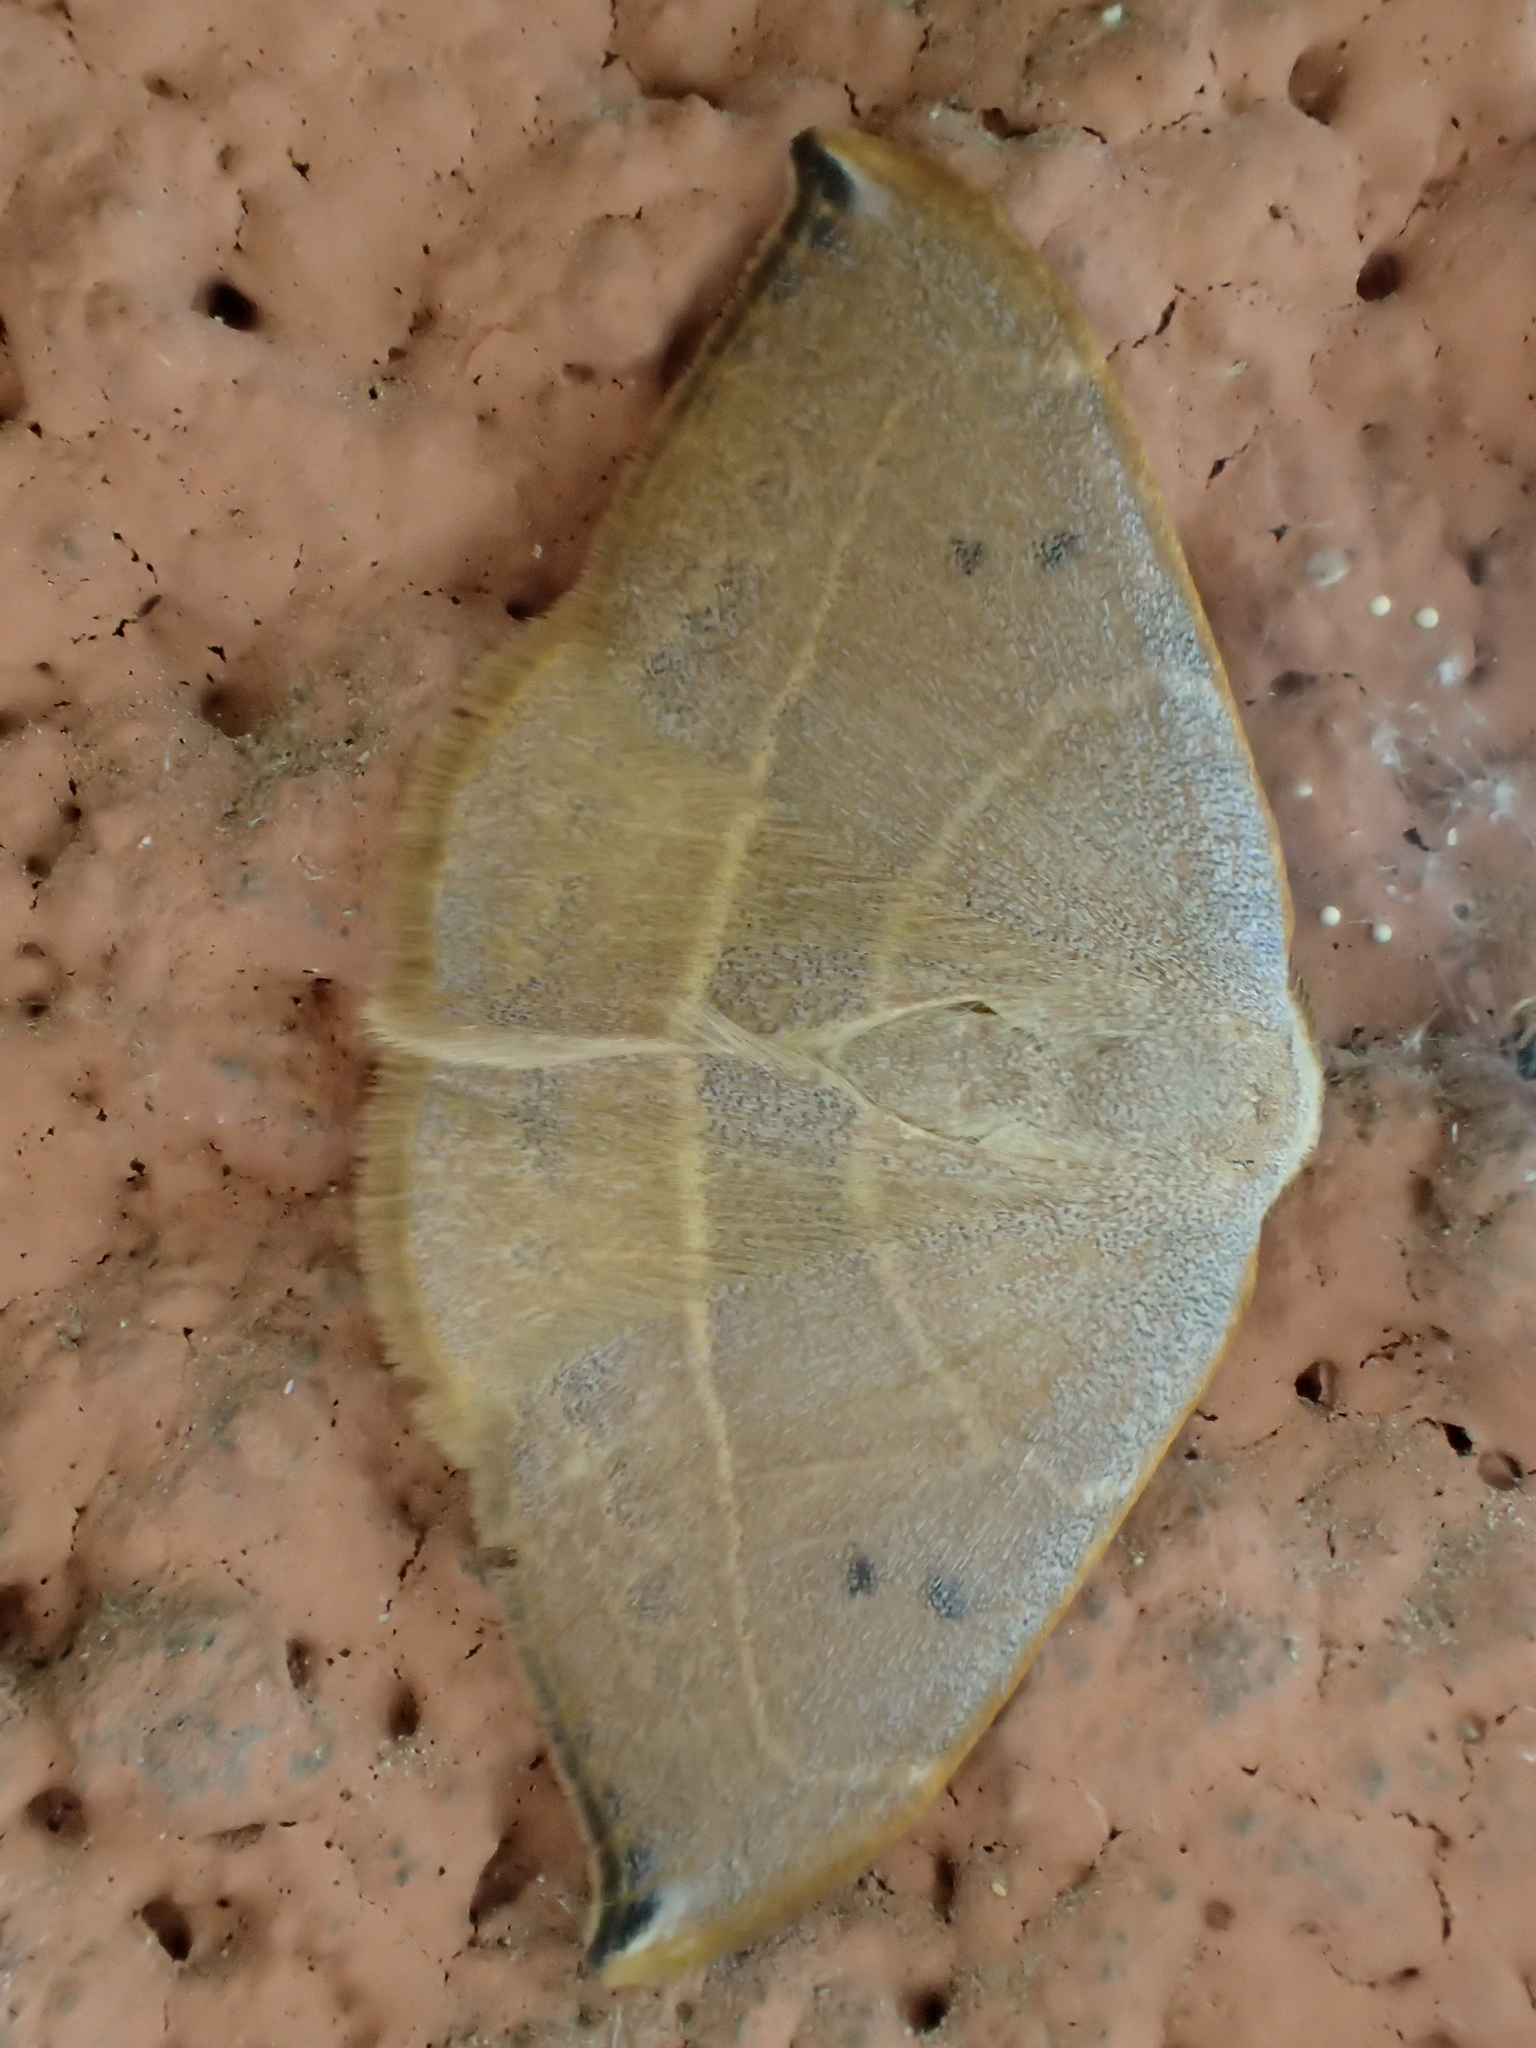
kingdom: Animalia
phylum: Arthropoda
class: Insecta
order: Lepidoptera
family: Drepanidae
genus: Watsonalla
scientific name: Watsonalla uncinula
